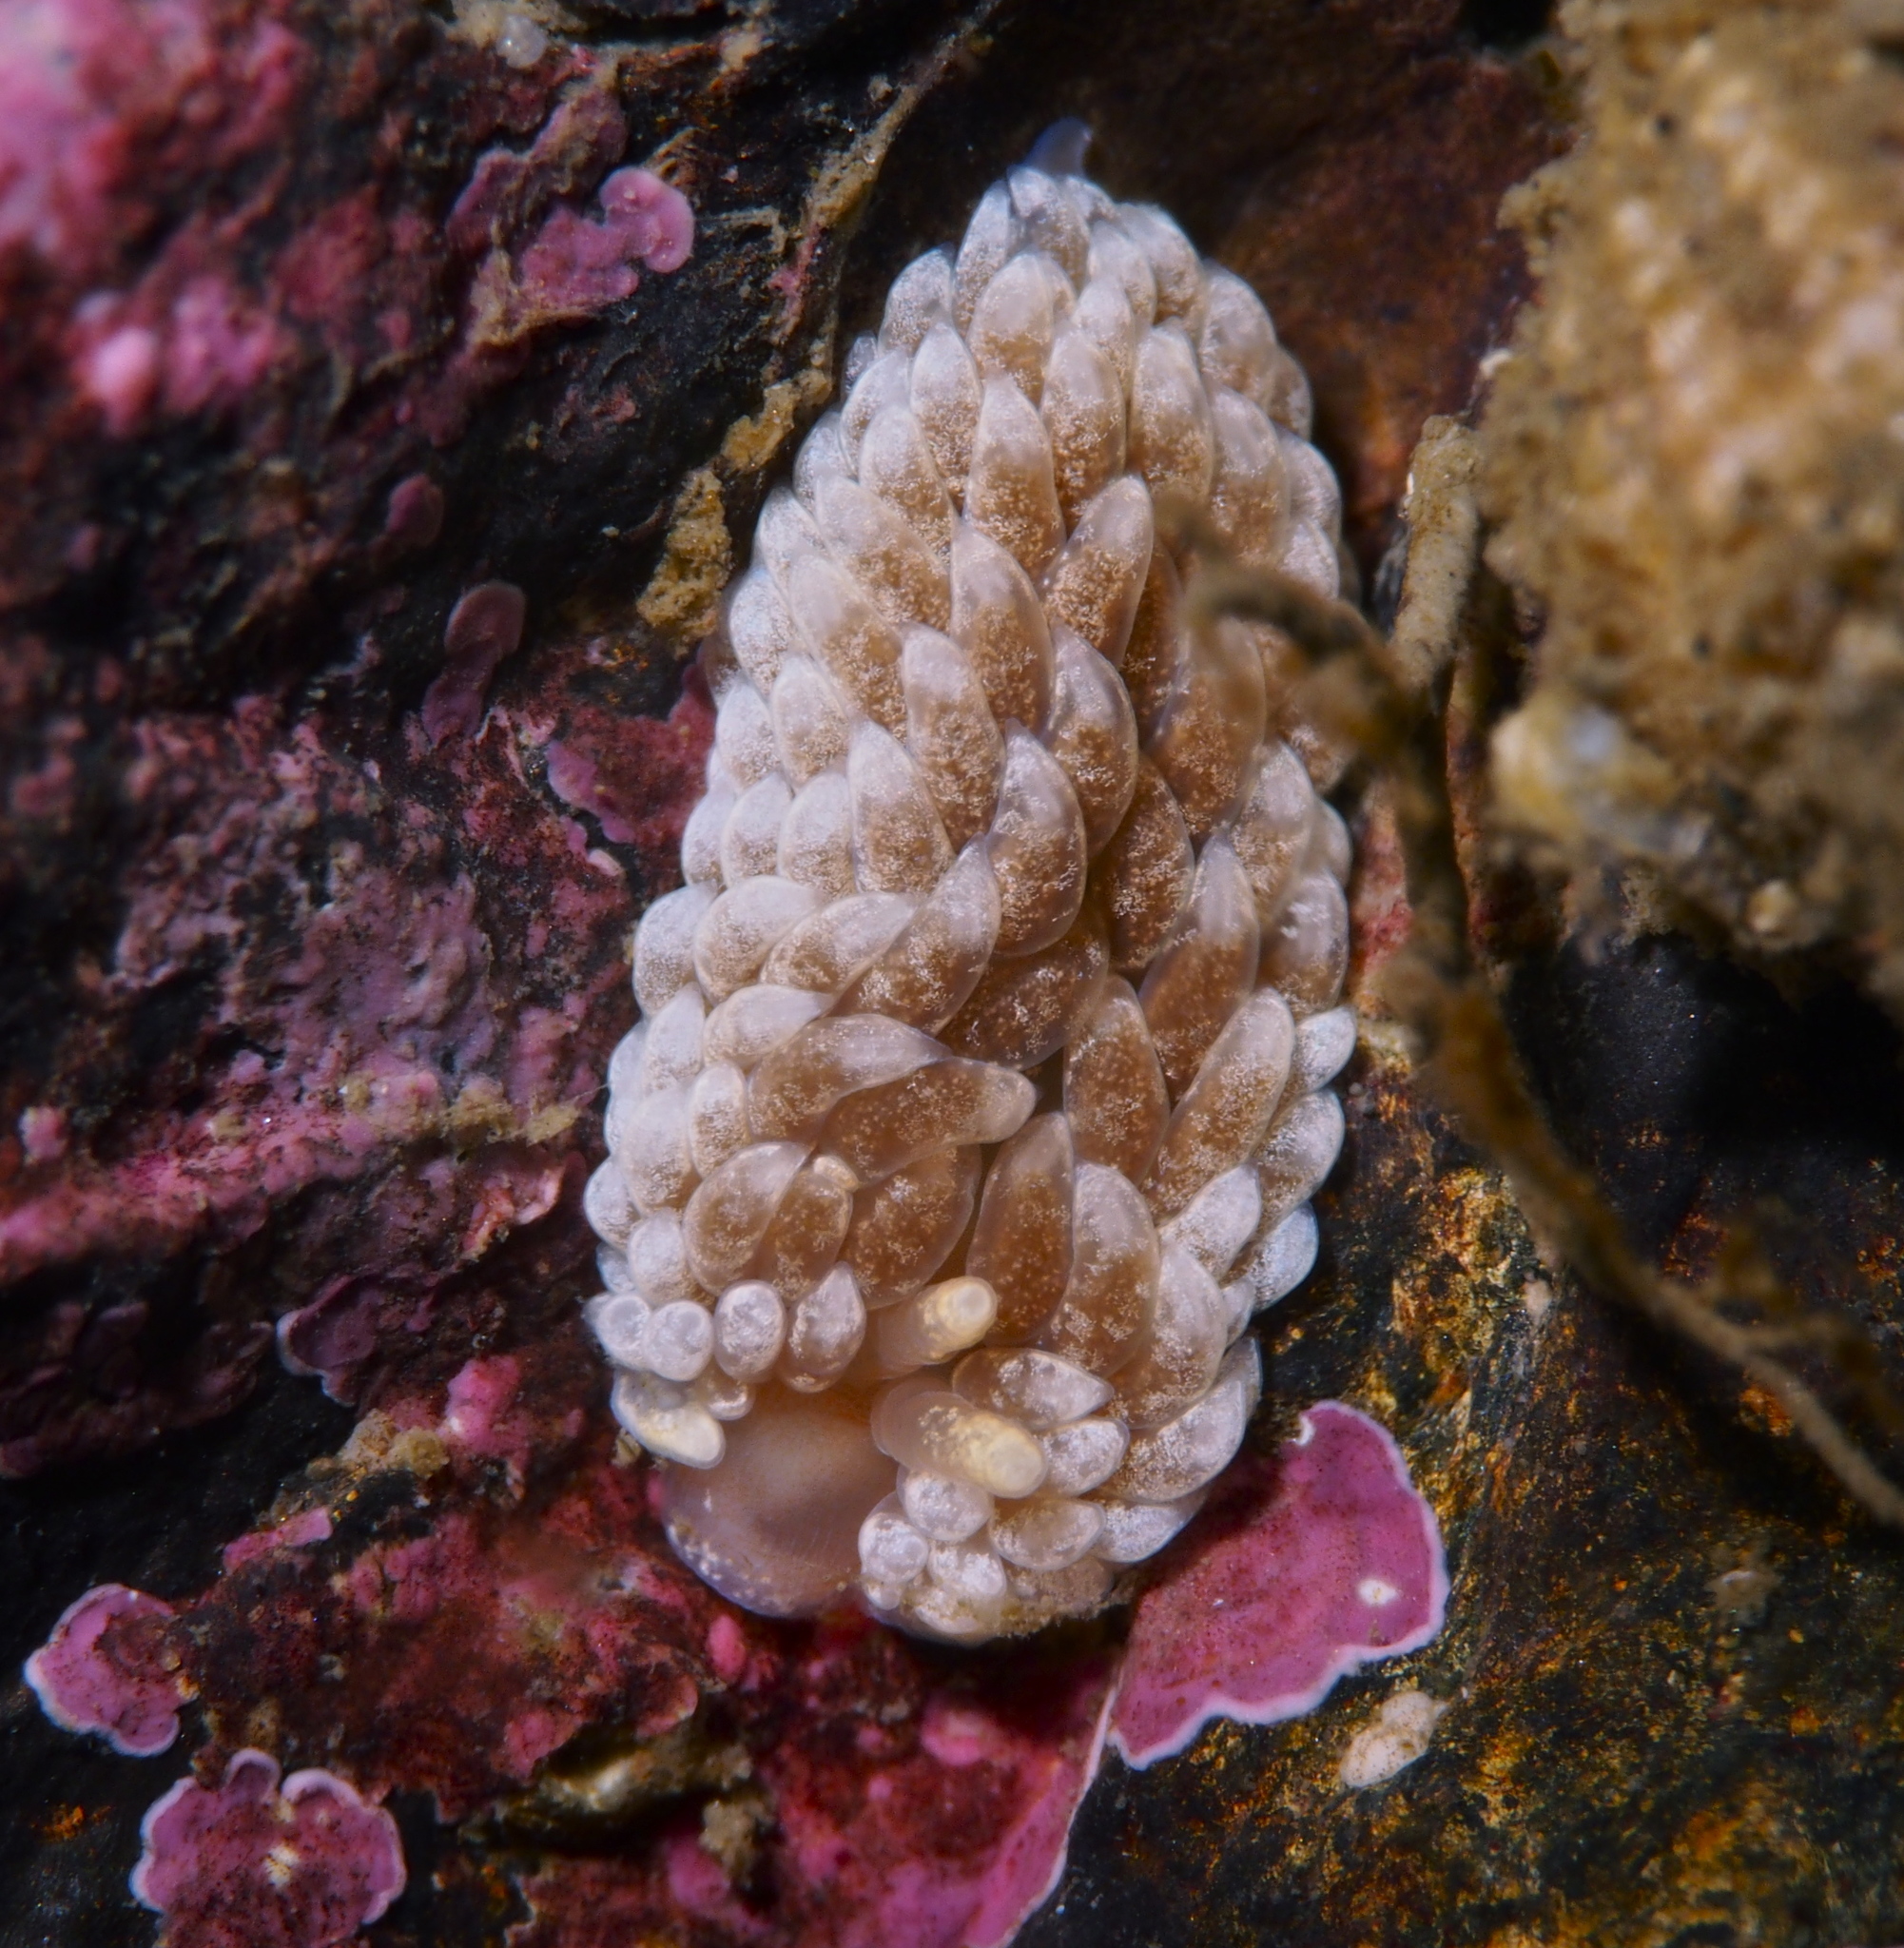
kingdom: Animalia
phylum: Mollusca
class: Gastropoda
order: Nudibranchia
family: Aeolidiidae
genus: Aeolidiella
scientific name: Aeolidiella glauca
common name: Orange-brown aeolid
